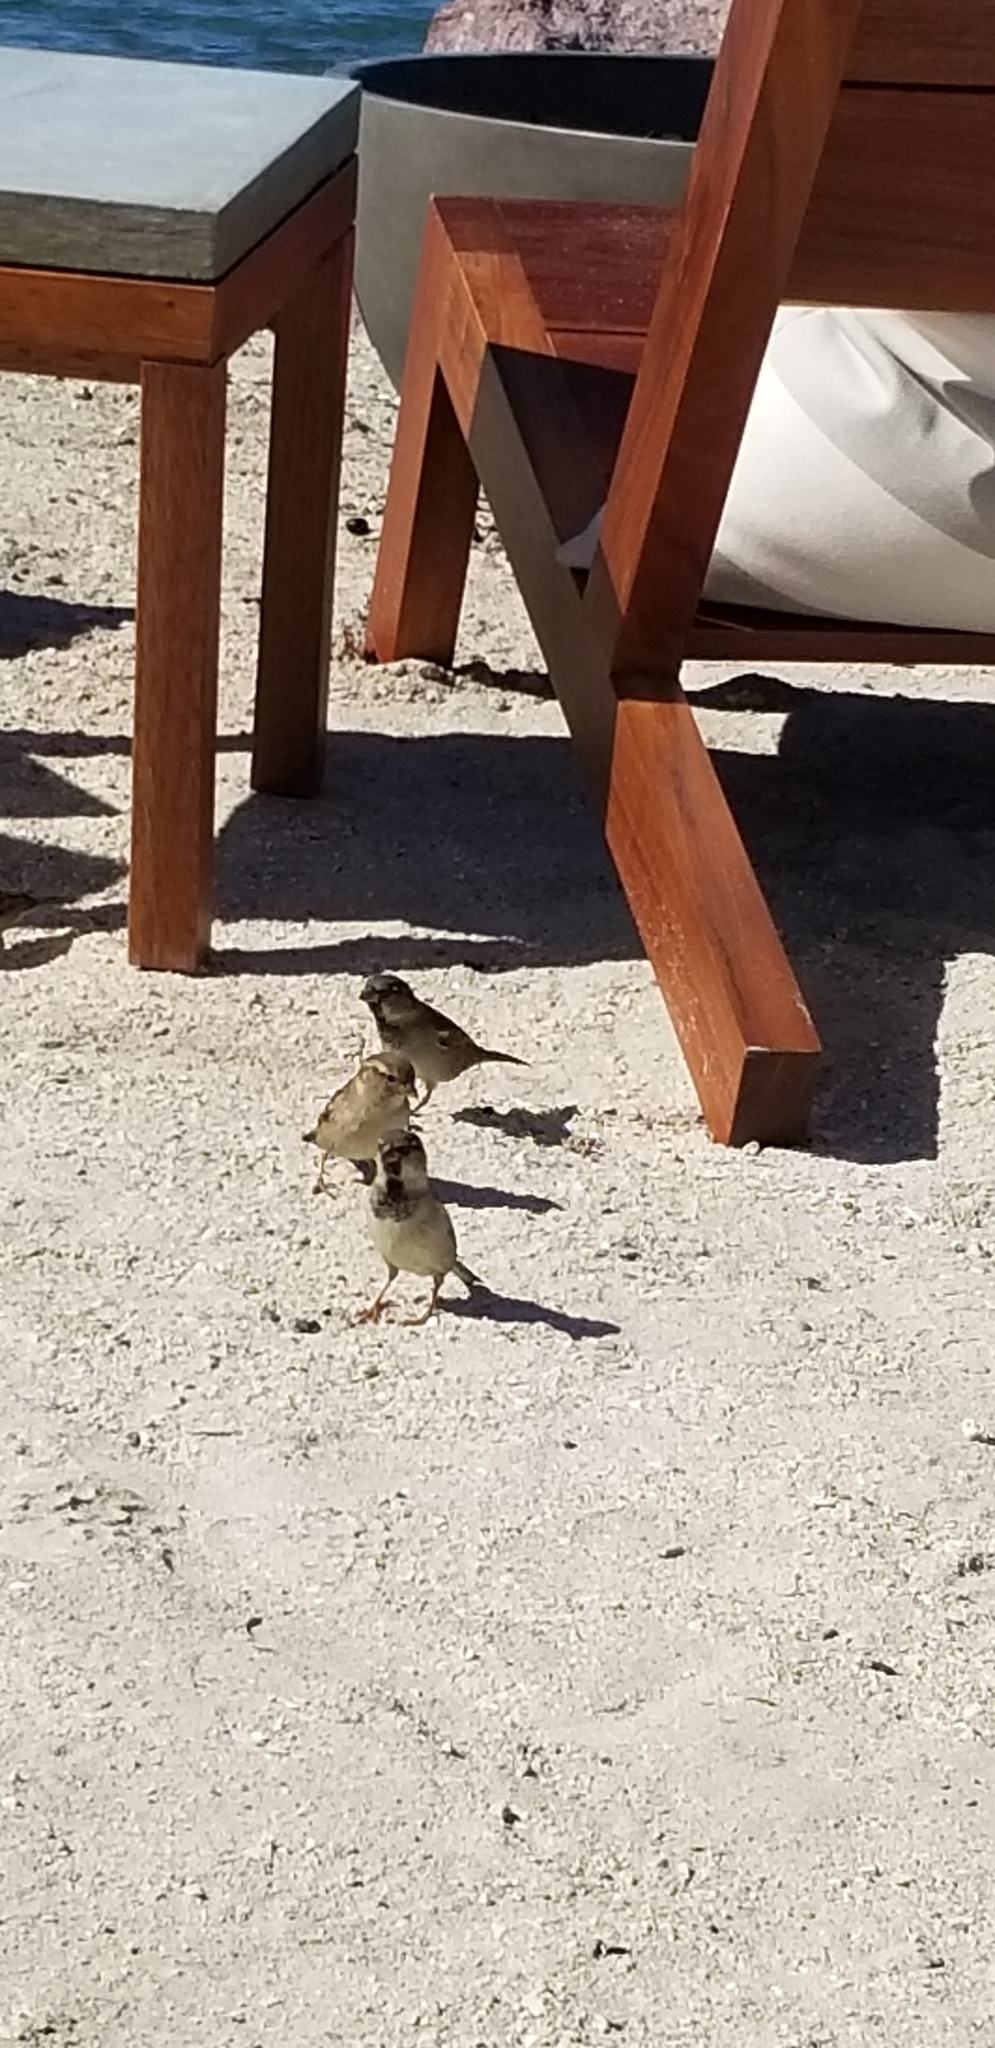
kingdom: Animalia
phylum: Chordata
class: Aves
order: Passeriformes
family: Passeridae
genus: Passer
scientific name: Passer domesticus
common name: House sparrow
